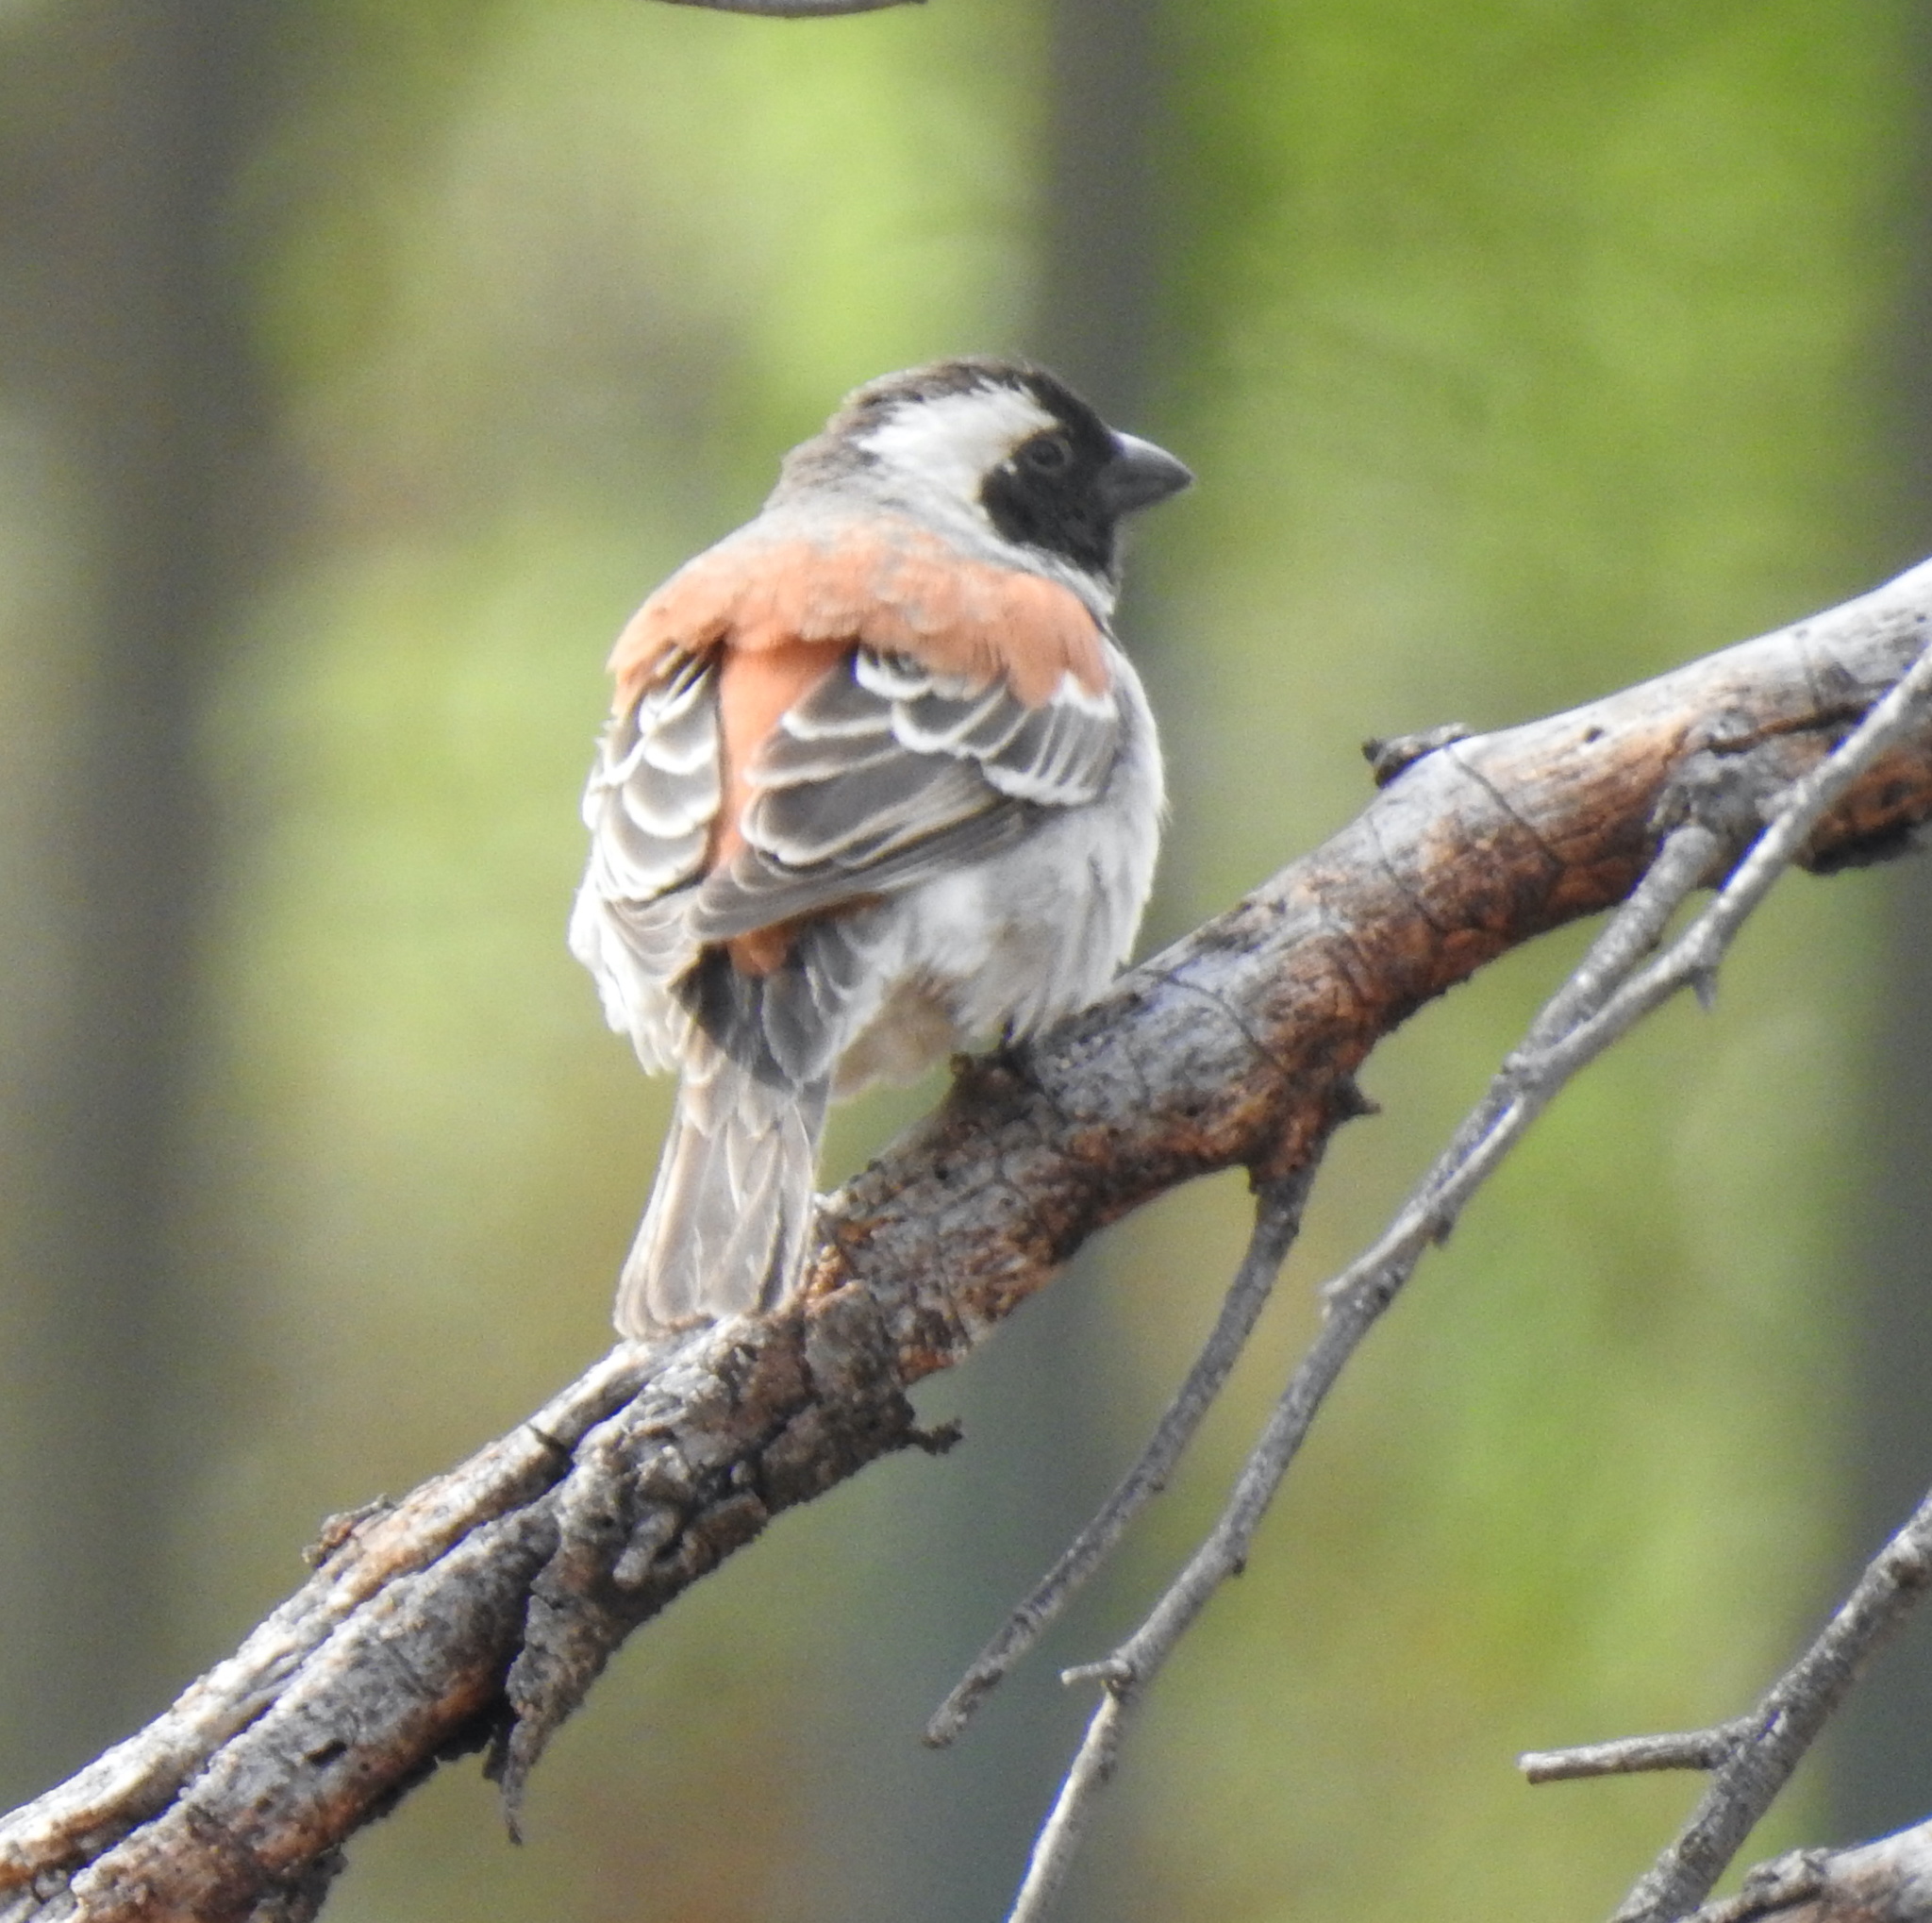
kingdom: Animalia
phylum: Chordata
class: Aves
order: Passeriformes
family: Passeridae
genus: Passer
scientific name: Passer melanurus
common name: Cape sparrow
